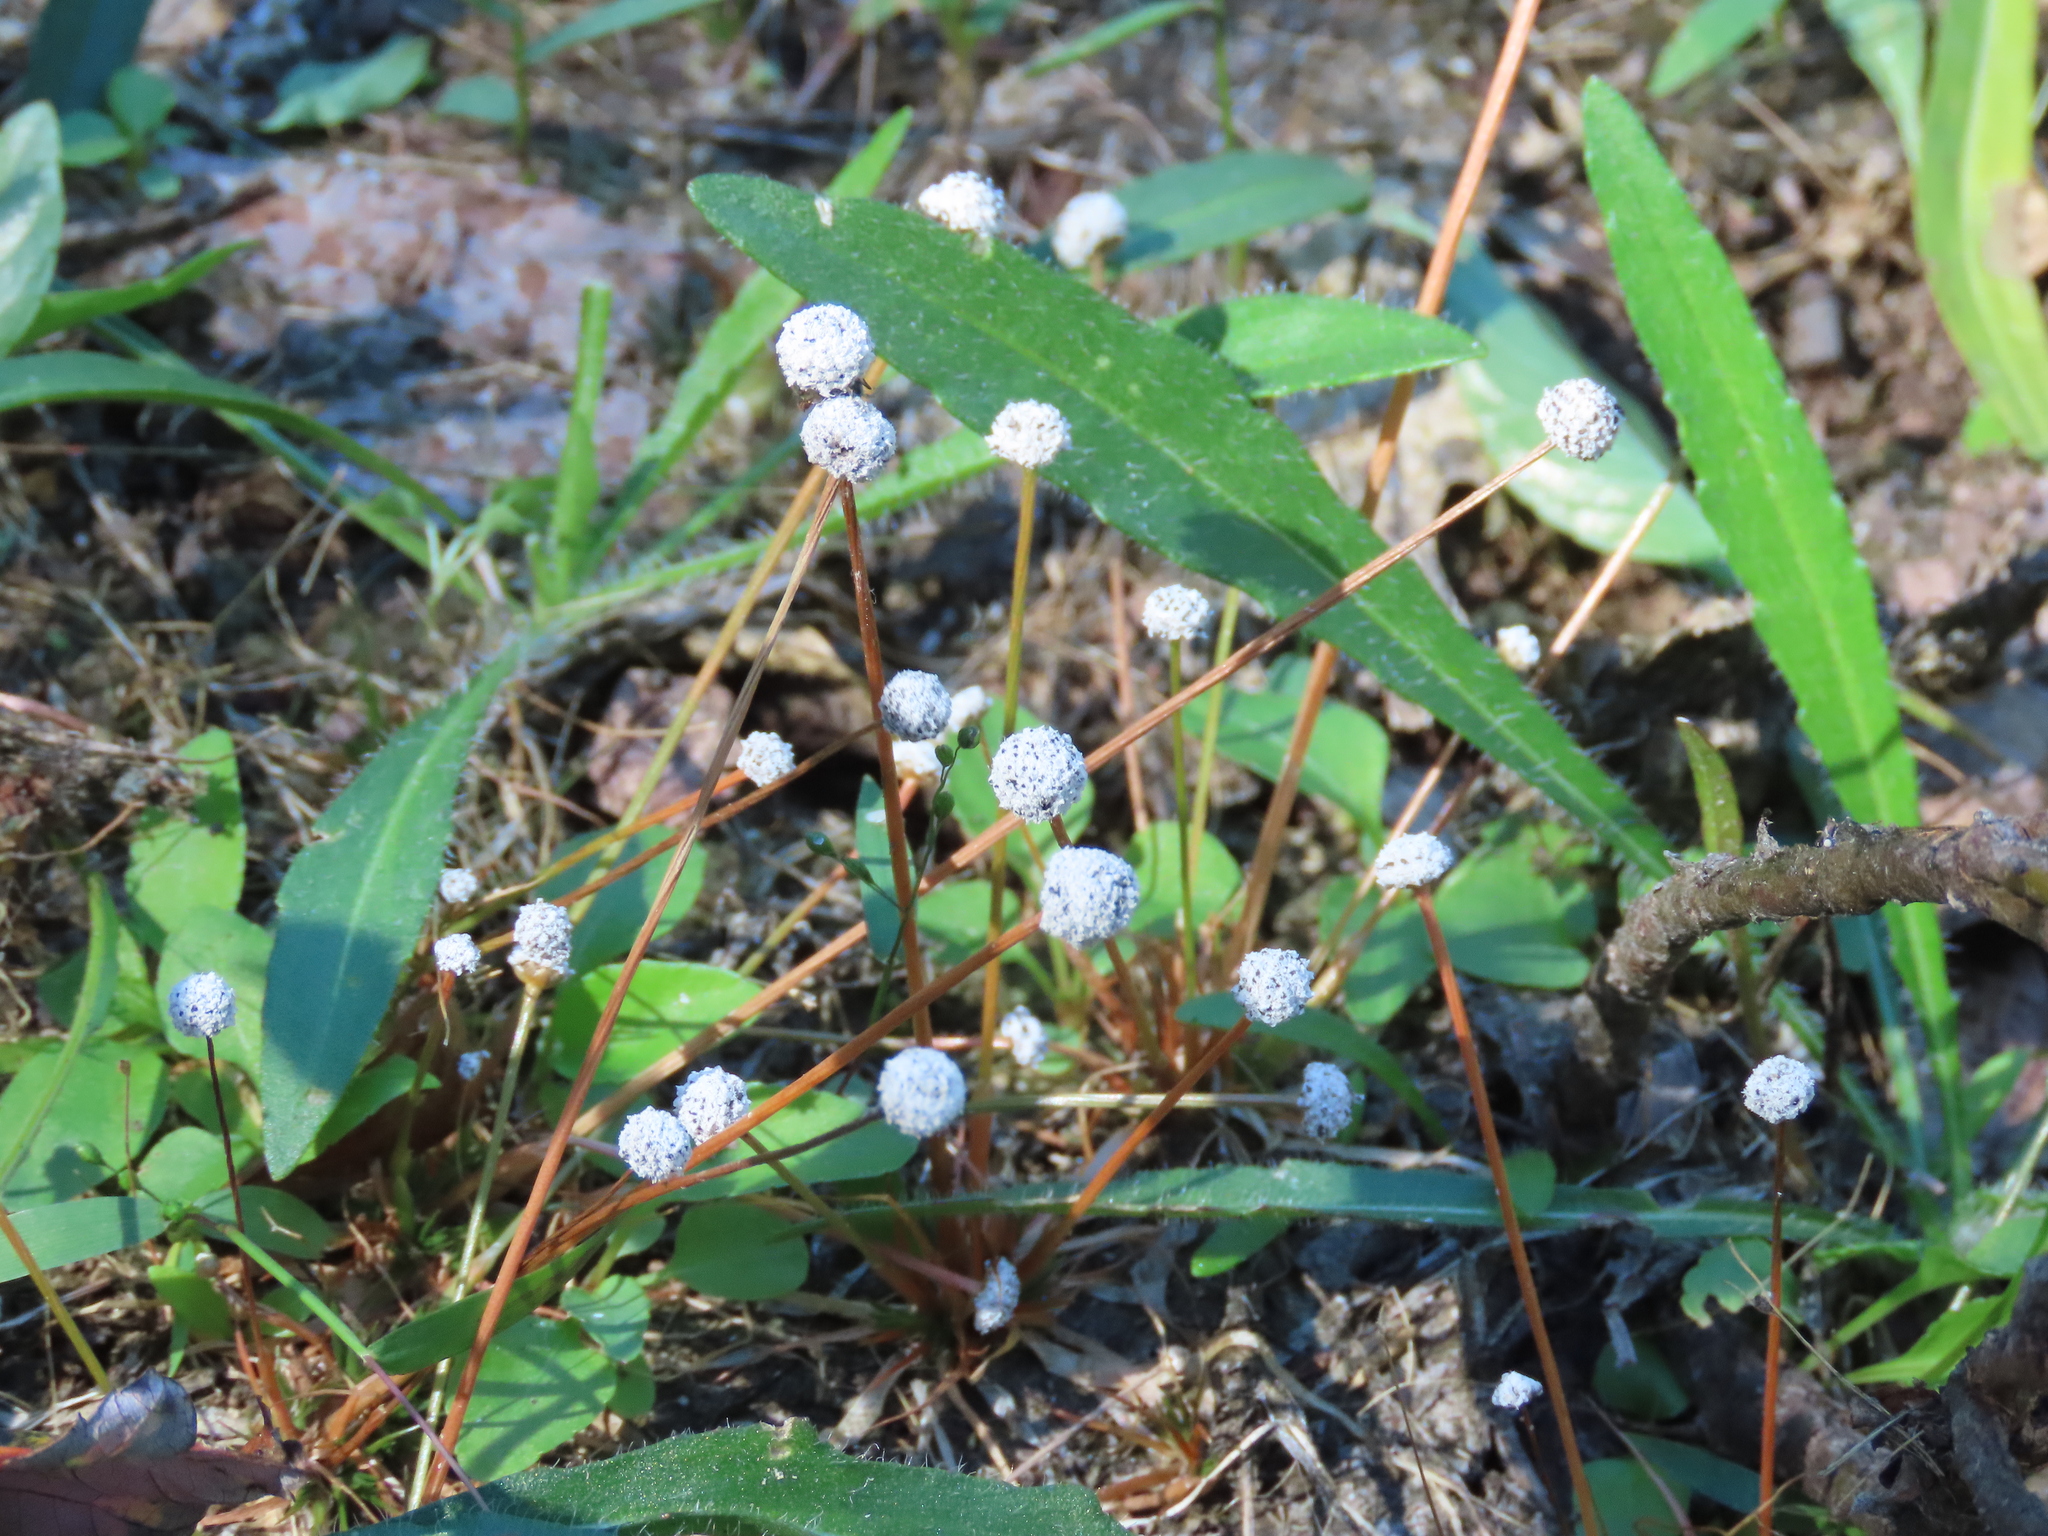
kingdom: Plantae
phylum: Tracheophyta
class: Liliopsida
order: Poales
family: Eriocaulaceae
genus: Eriocaulon
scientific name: Eriocaulon aquaticum
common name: Pipewort
